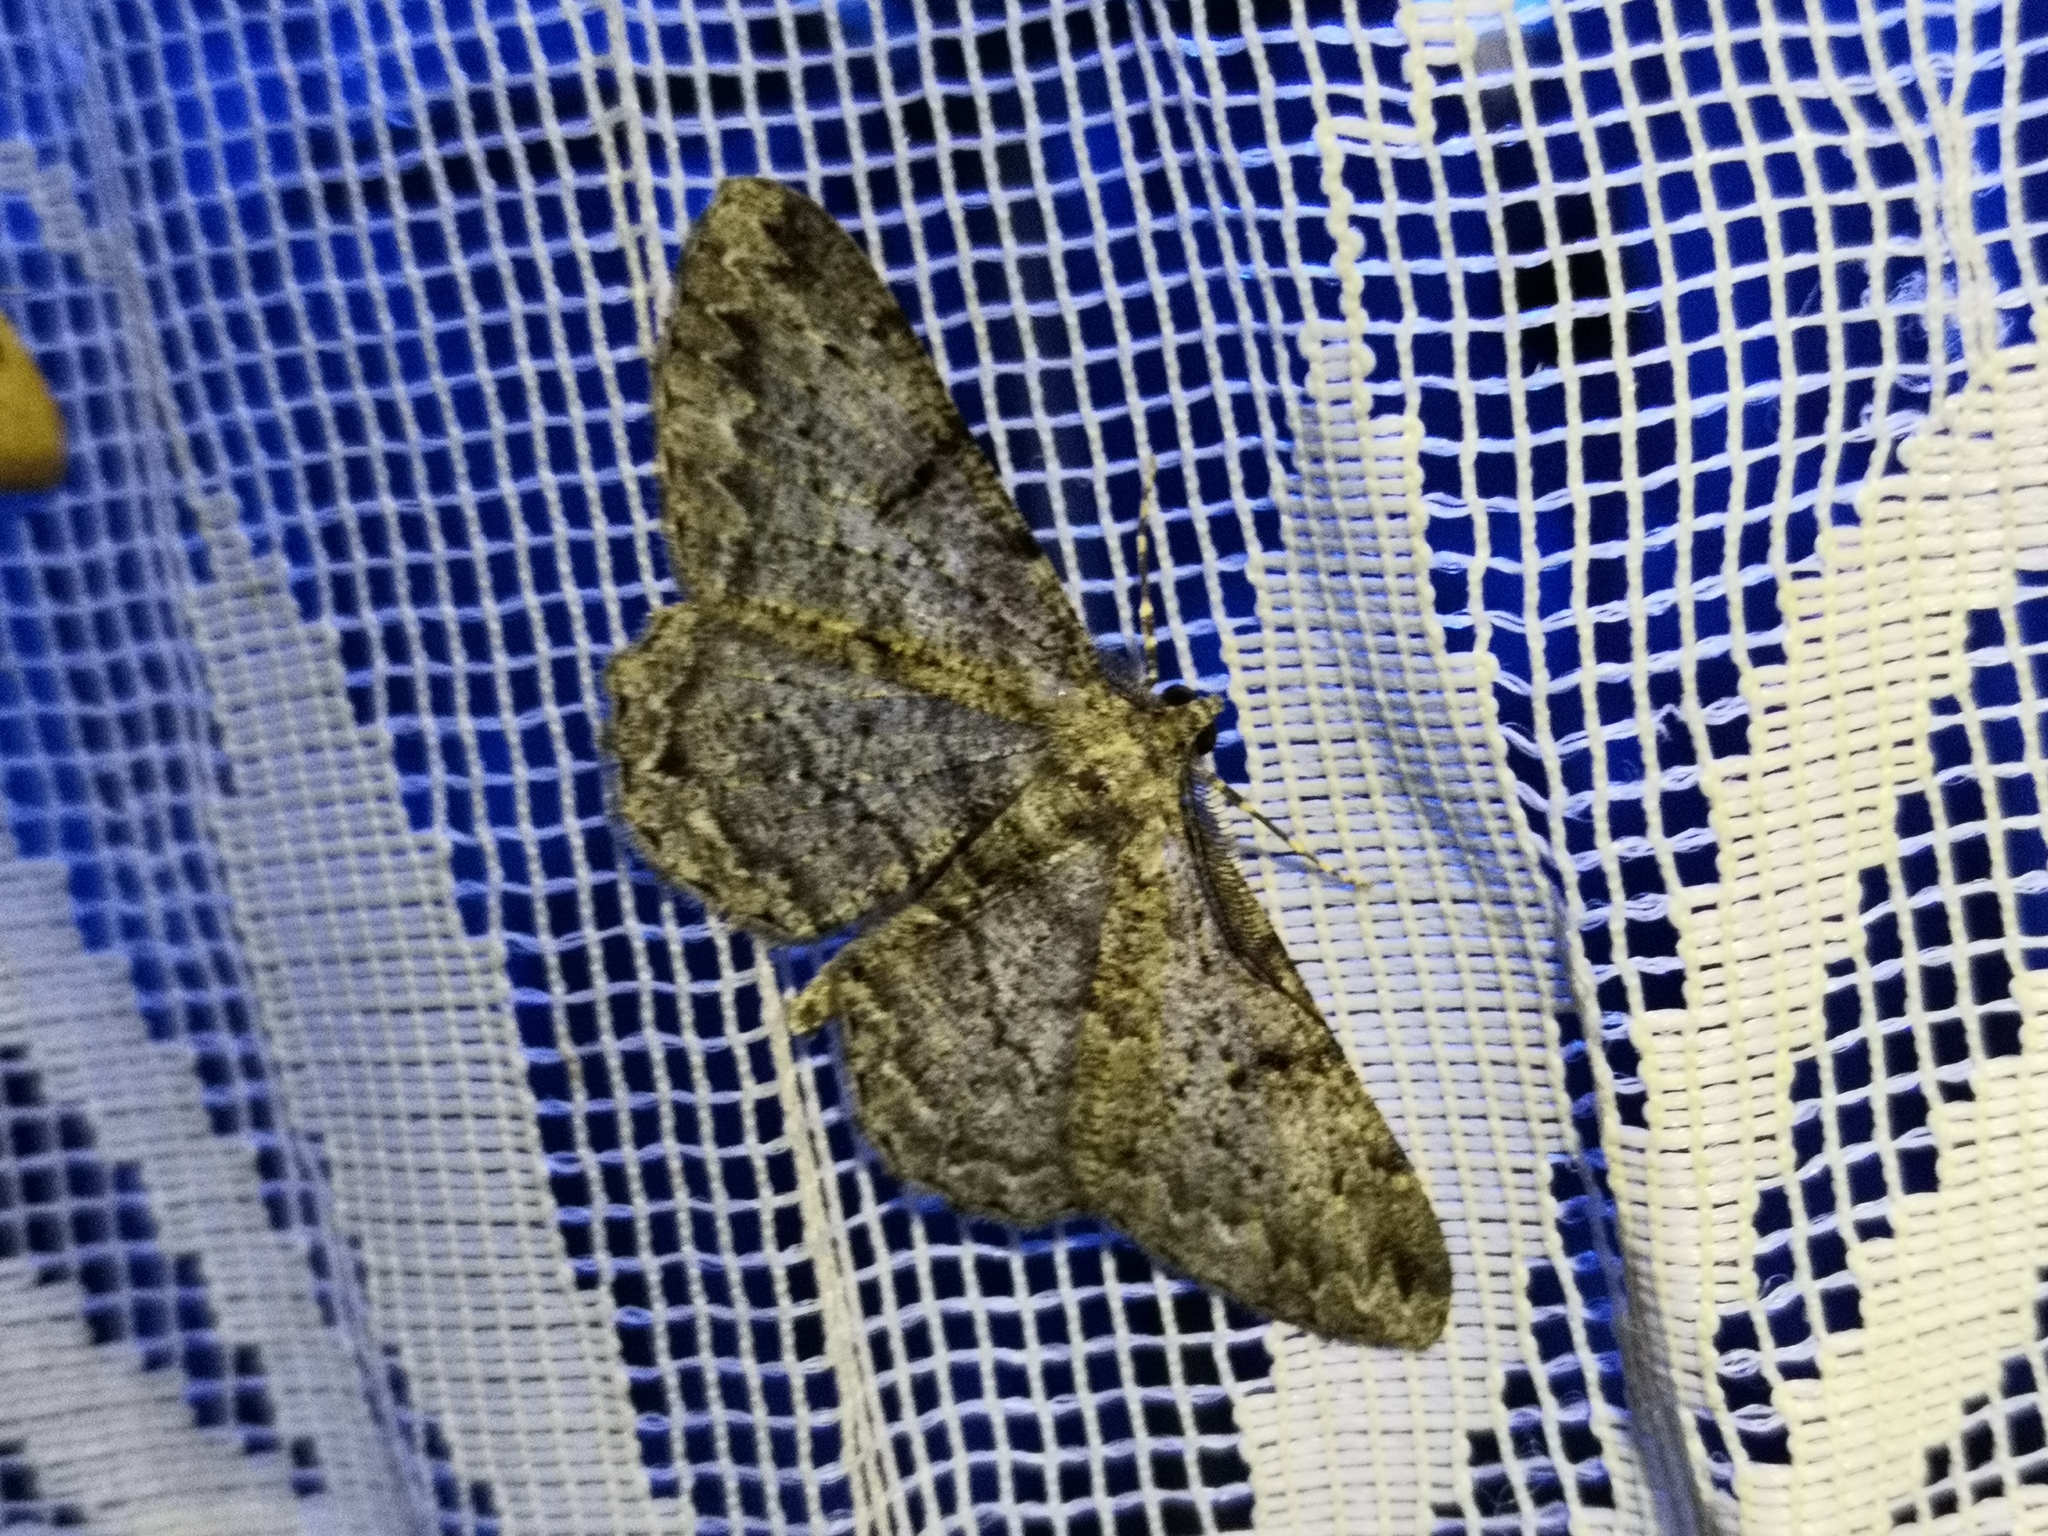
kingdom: Animalia
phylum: Arthropoda
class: Insecta
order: Lepidoptera
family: Geometridae
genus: Peribatodes
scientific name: Peribatodes rhomboidaria
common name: Willow beauty
